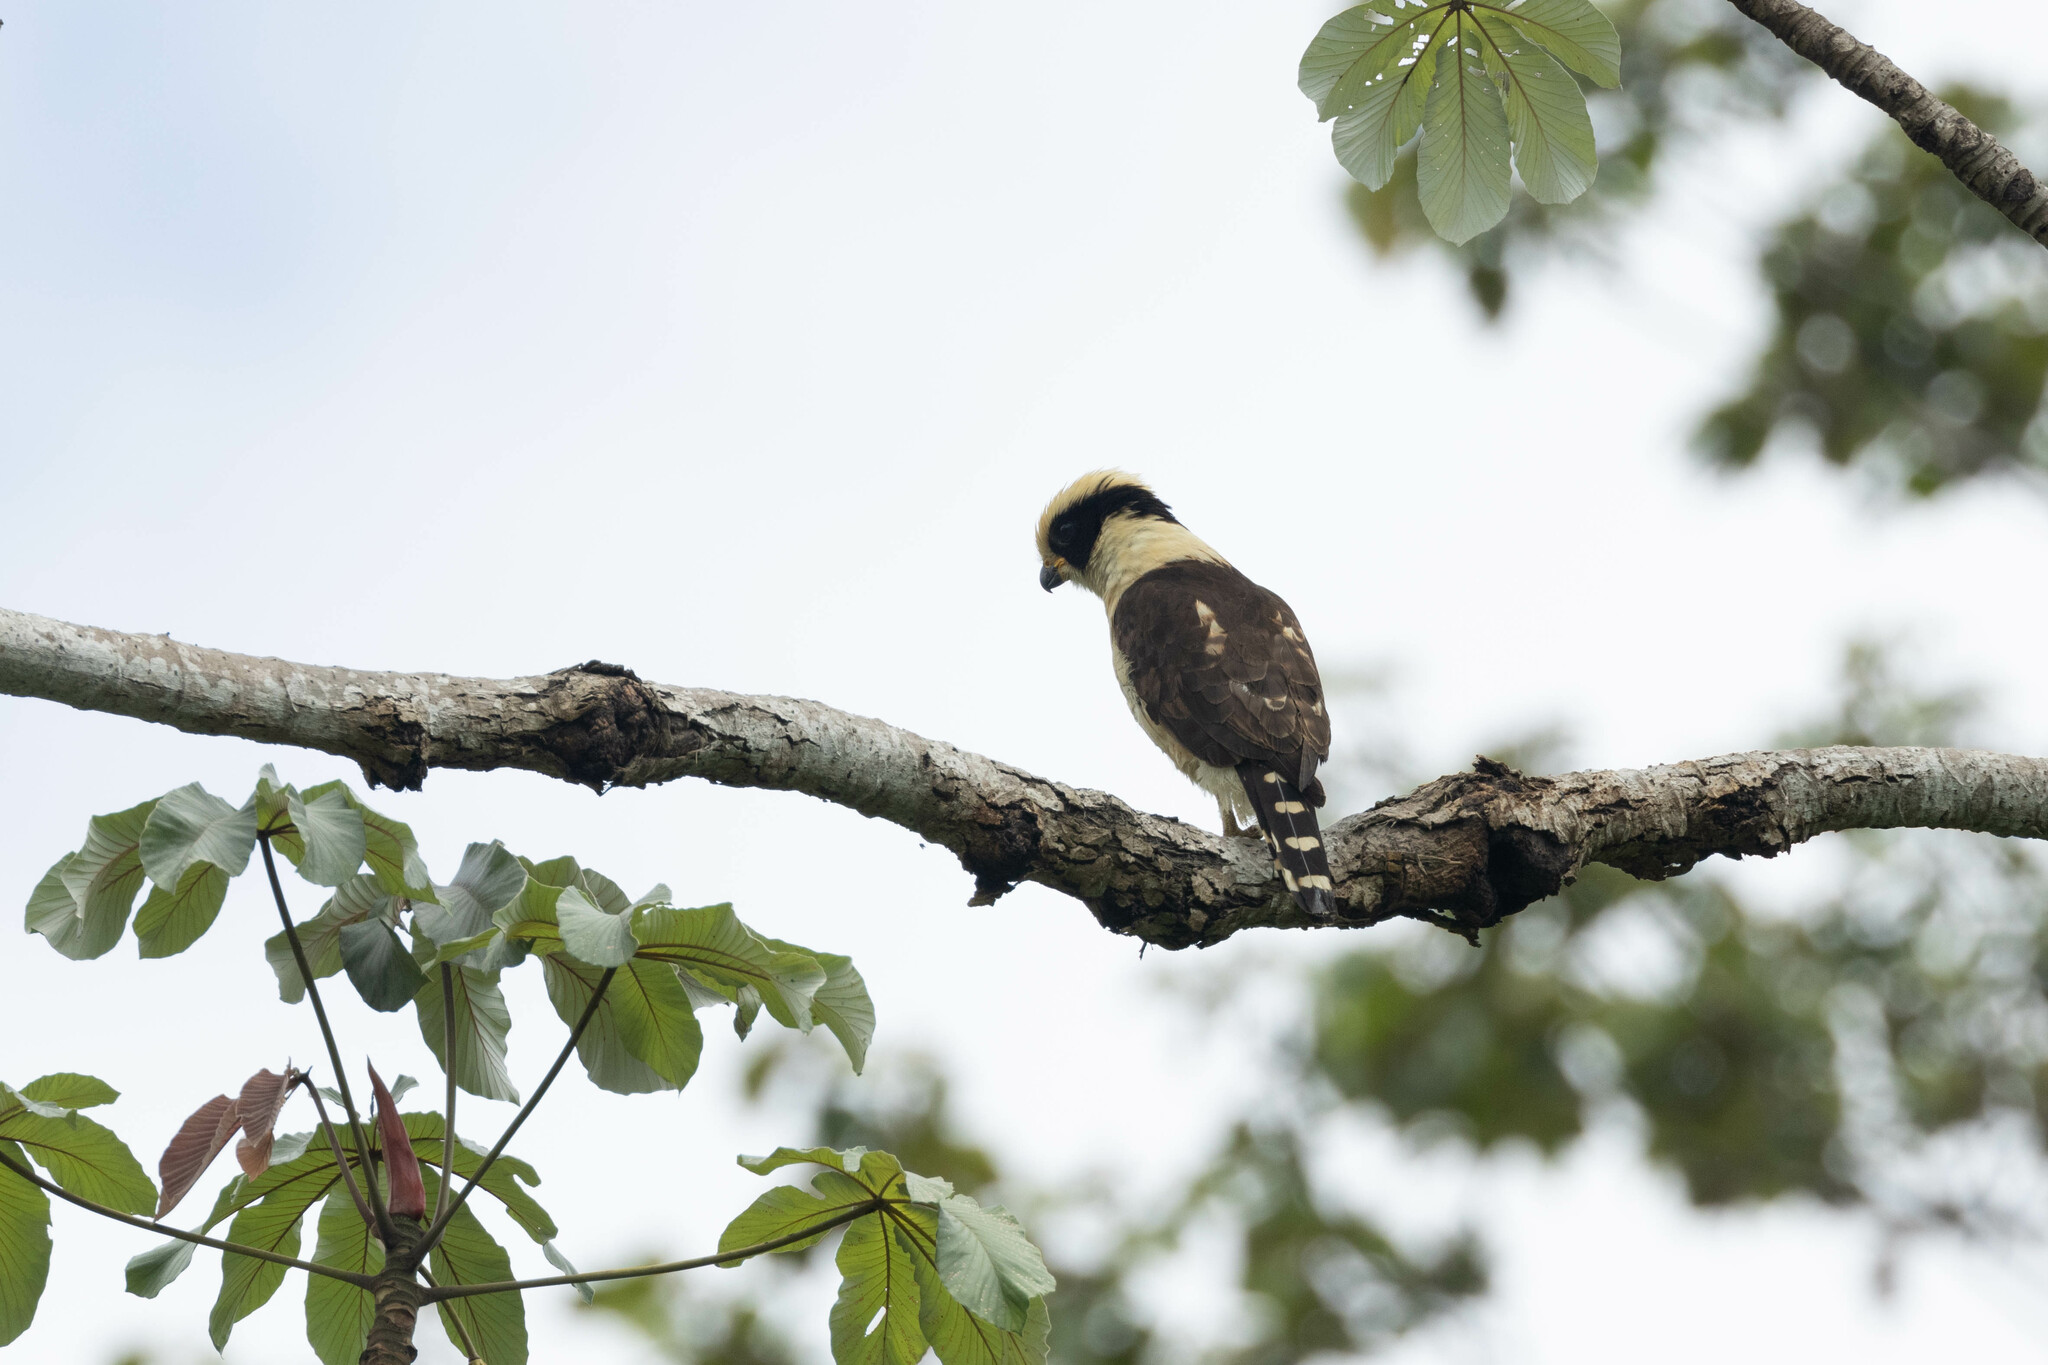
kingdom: Animalia
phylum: Chordata
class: Aves
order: Falconiformes
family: Falconidae
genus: Herpetotheres
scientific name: Herpetotheres cachinnans
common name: Laughing falcon
